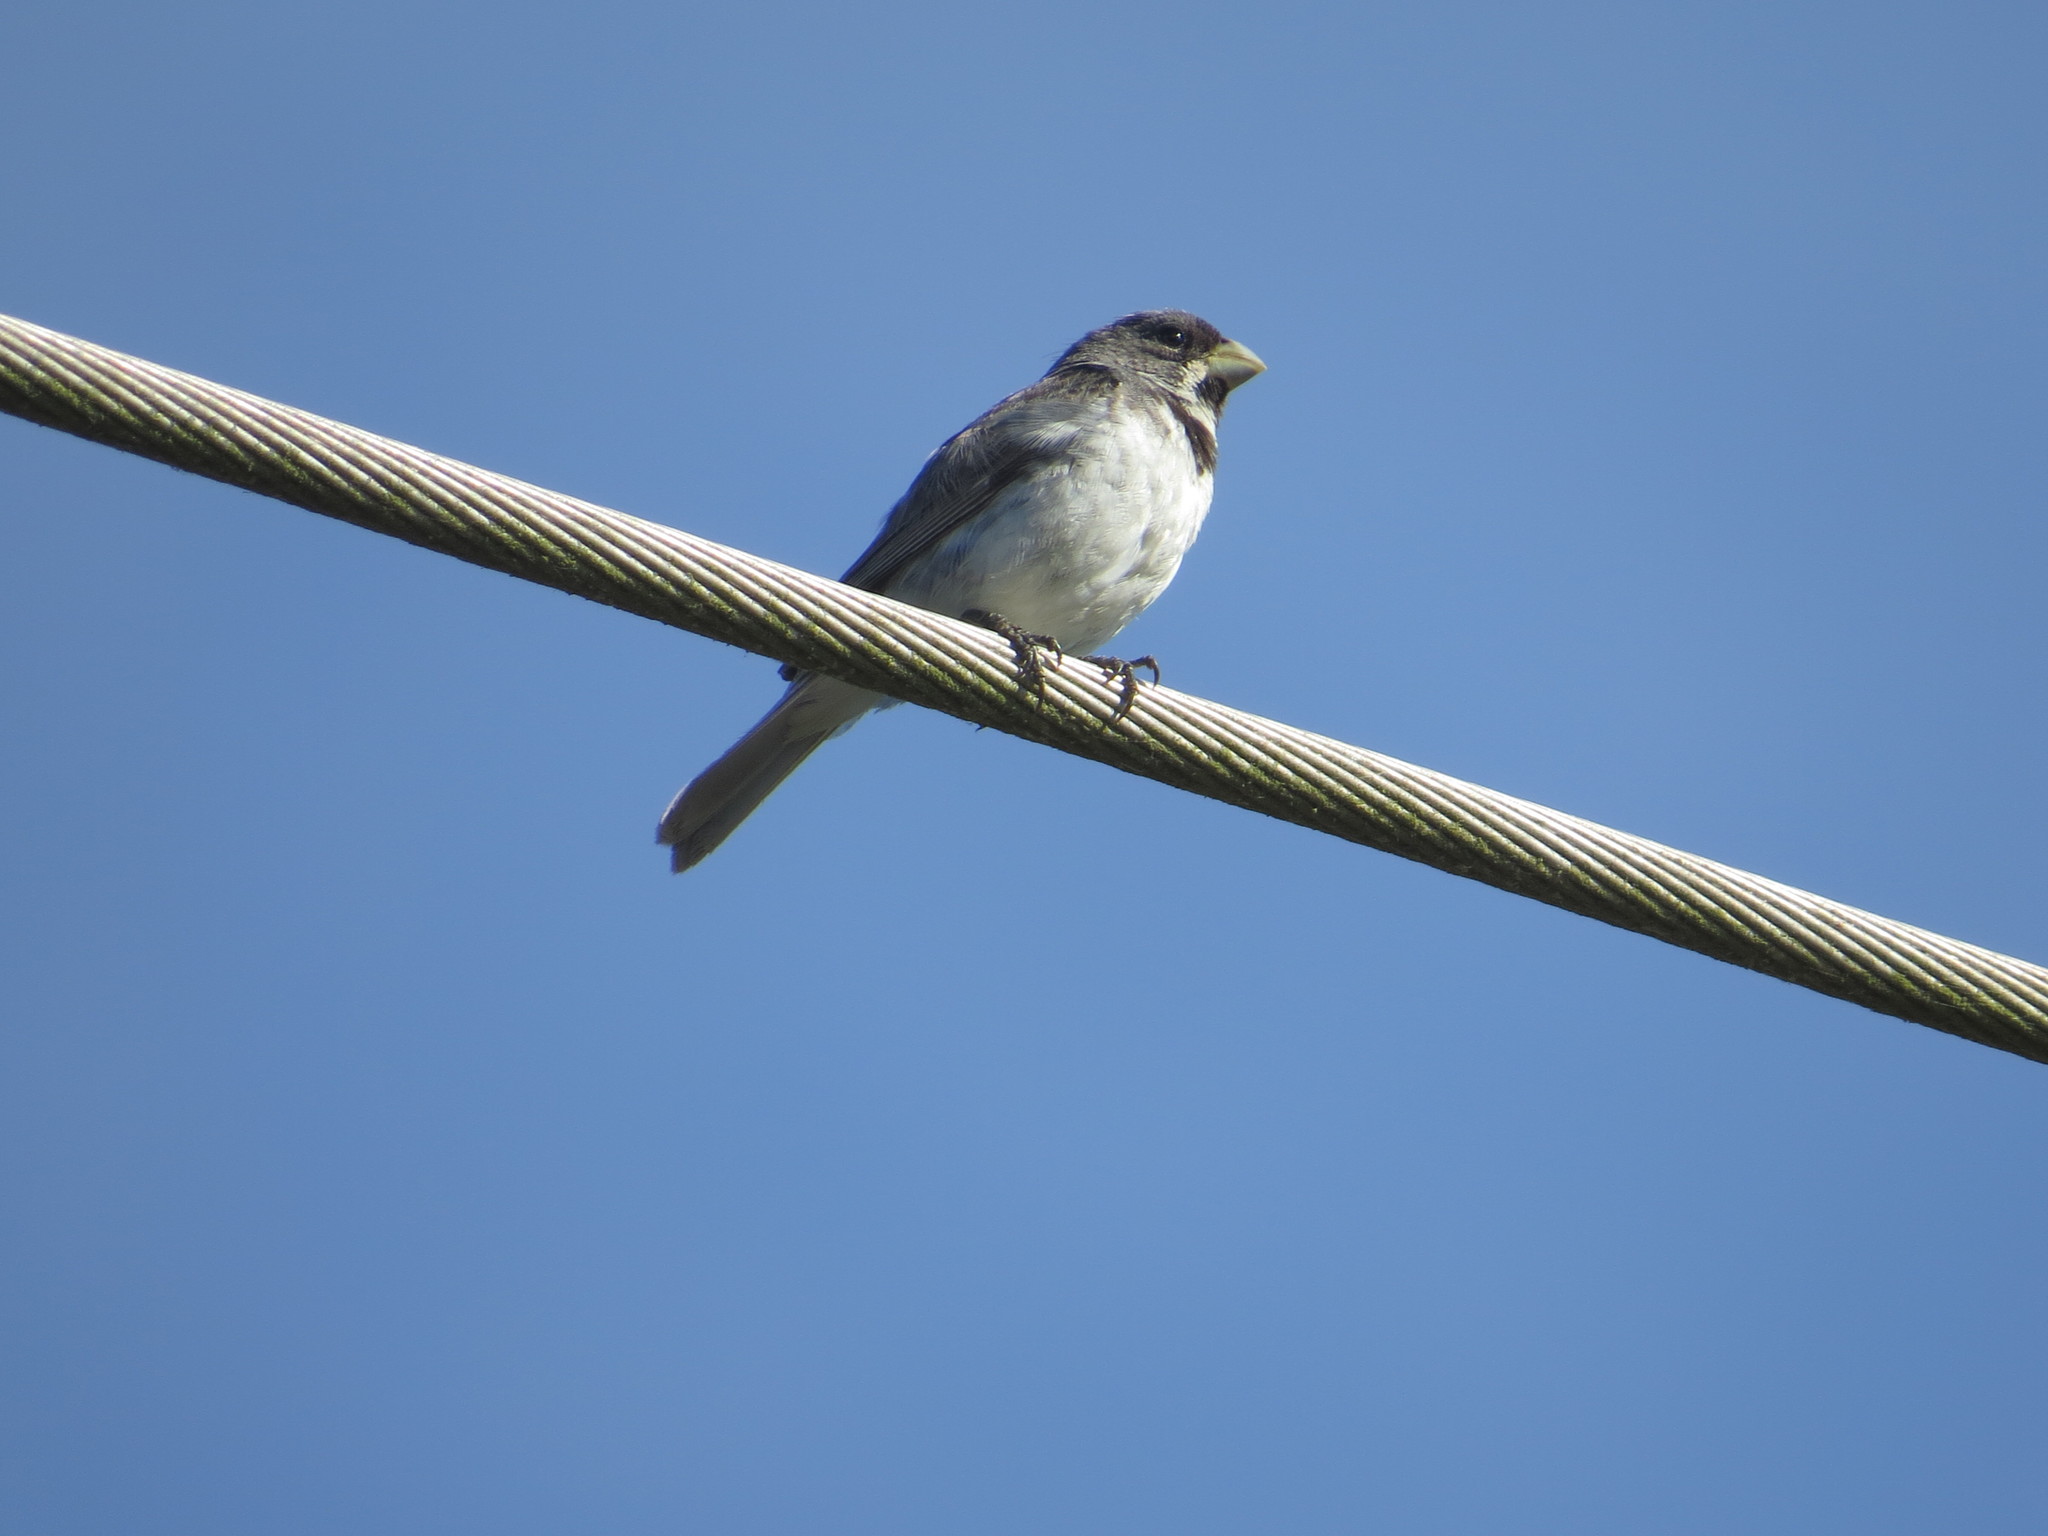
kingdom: Animalia
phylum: Chordata
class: Aves
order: Passeriformes
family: Thraupidae
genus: Sporophila
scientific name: Sporophila caerulescens
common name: Double-collared seedeater
